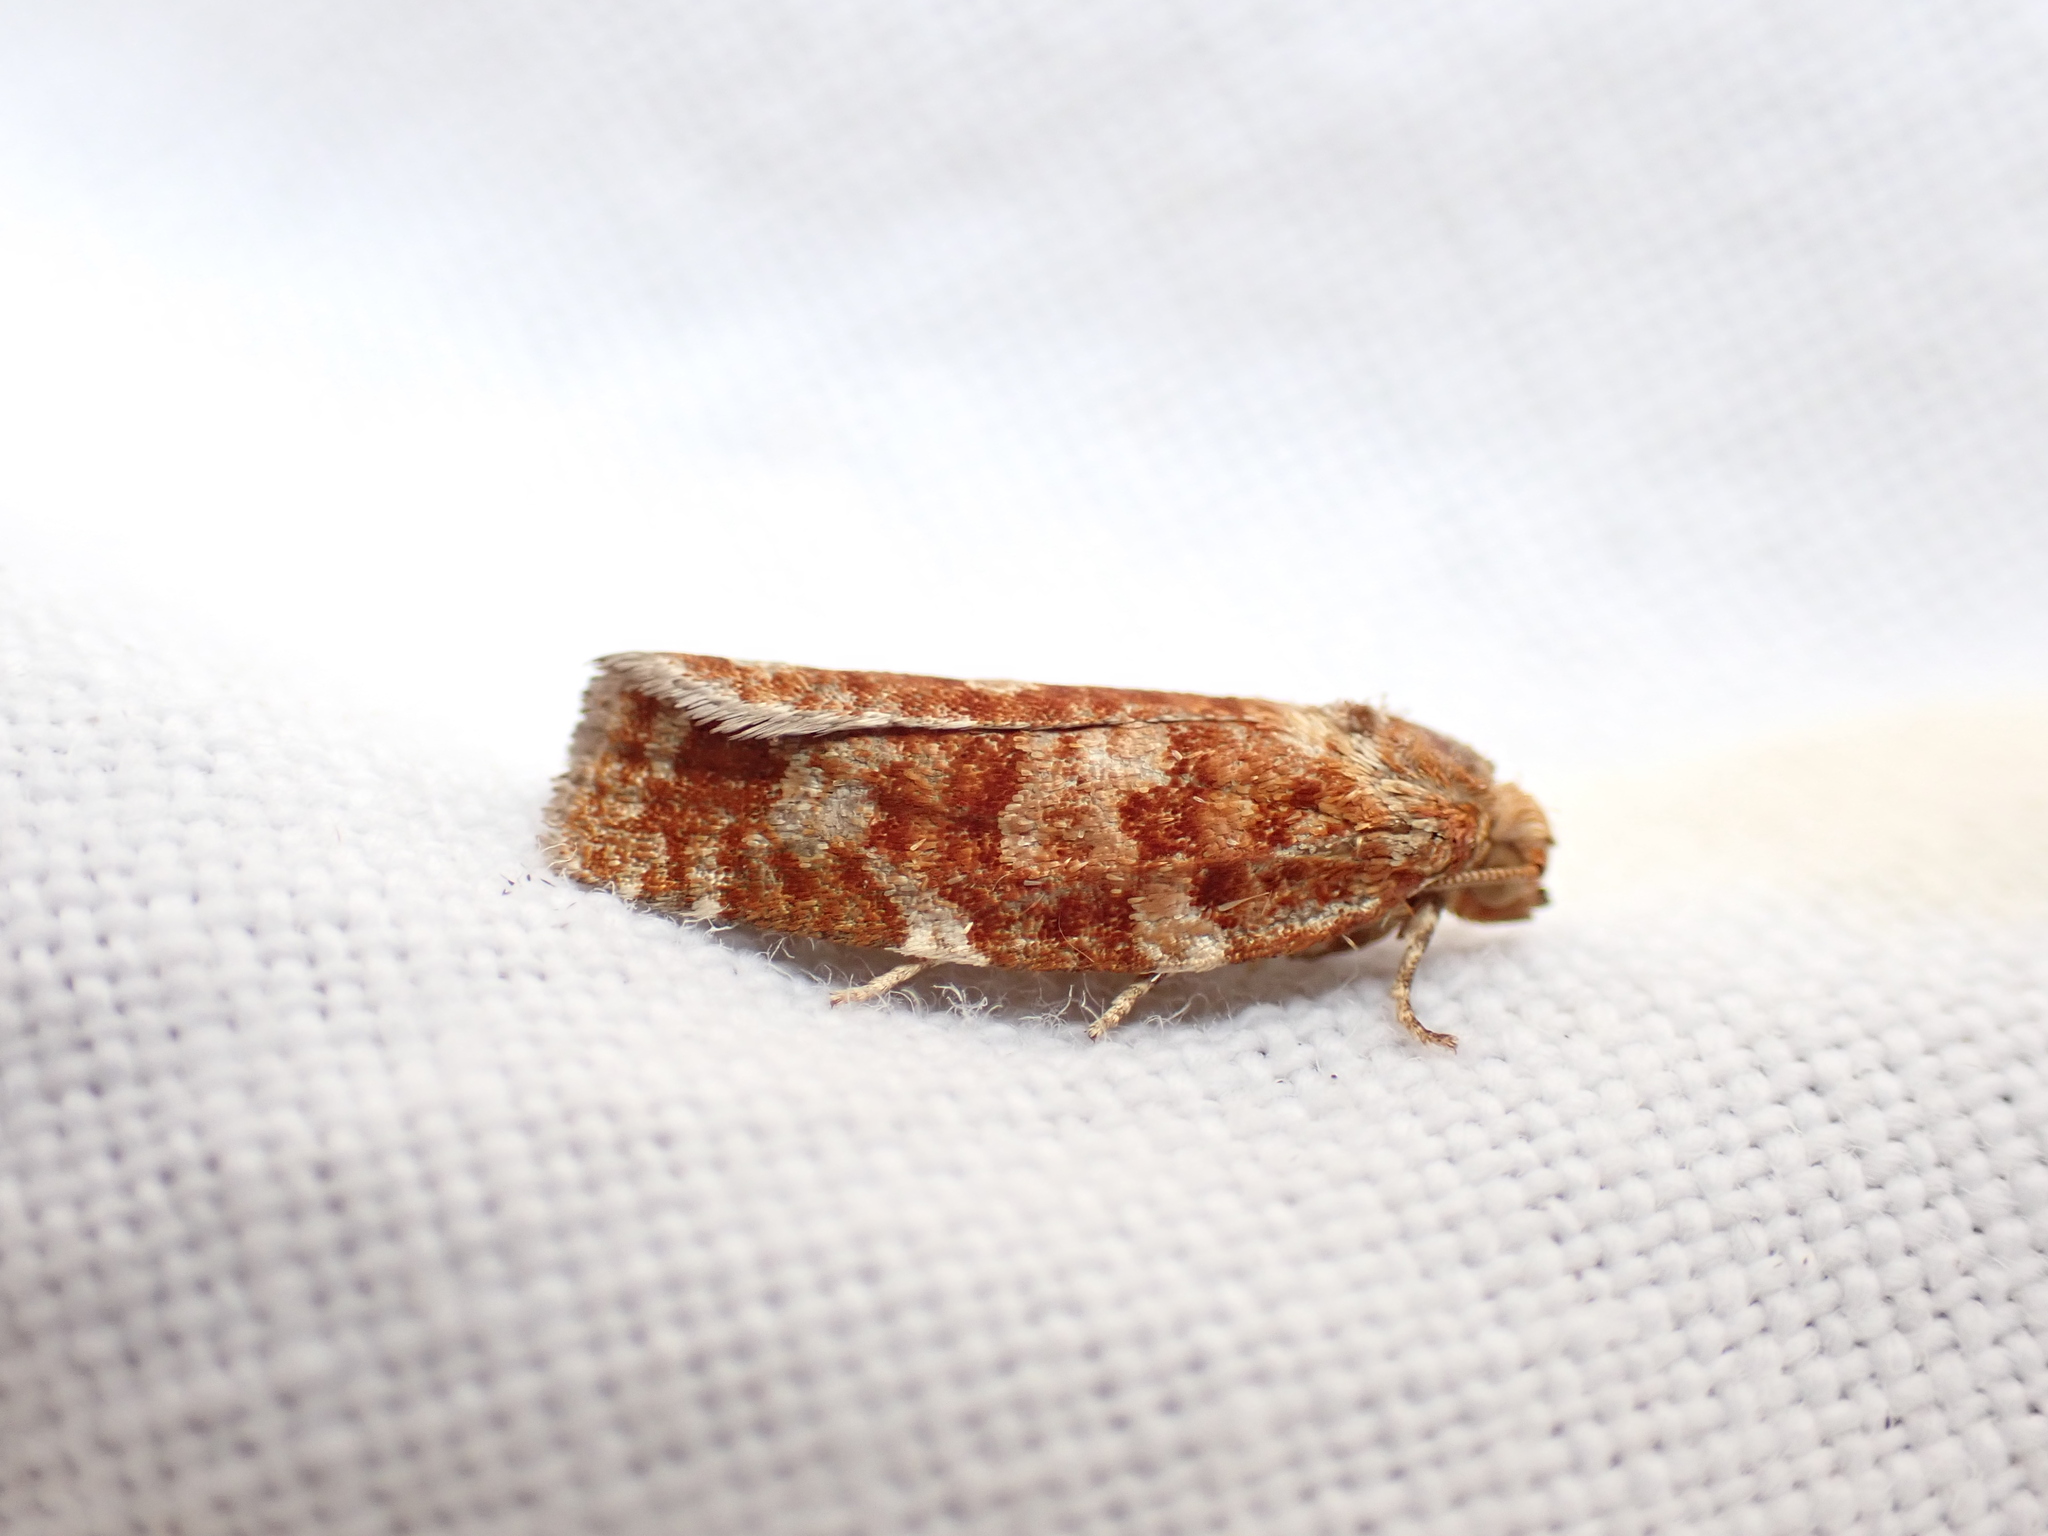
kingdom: Animalia
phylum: Arthropoda
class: Insecta
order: Lepidoptera
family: Tortricidae
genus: Choristoneura
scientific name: Choristoneura pinus
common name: Jack pine budworm
